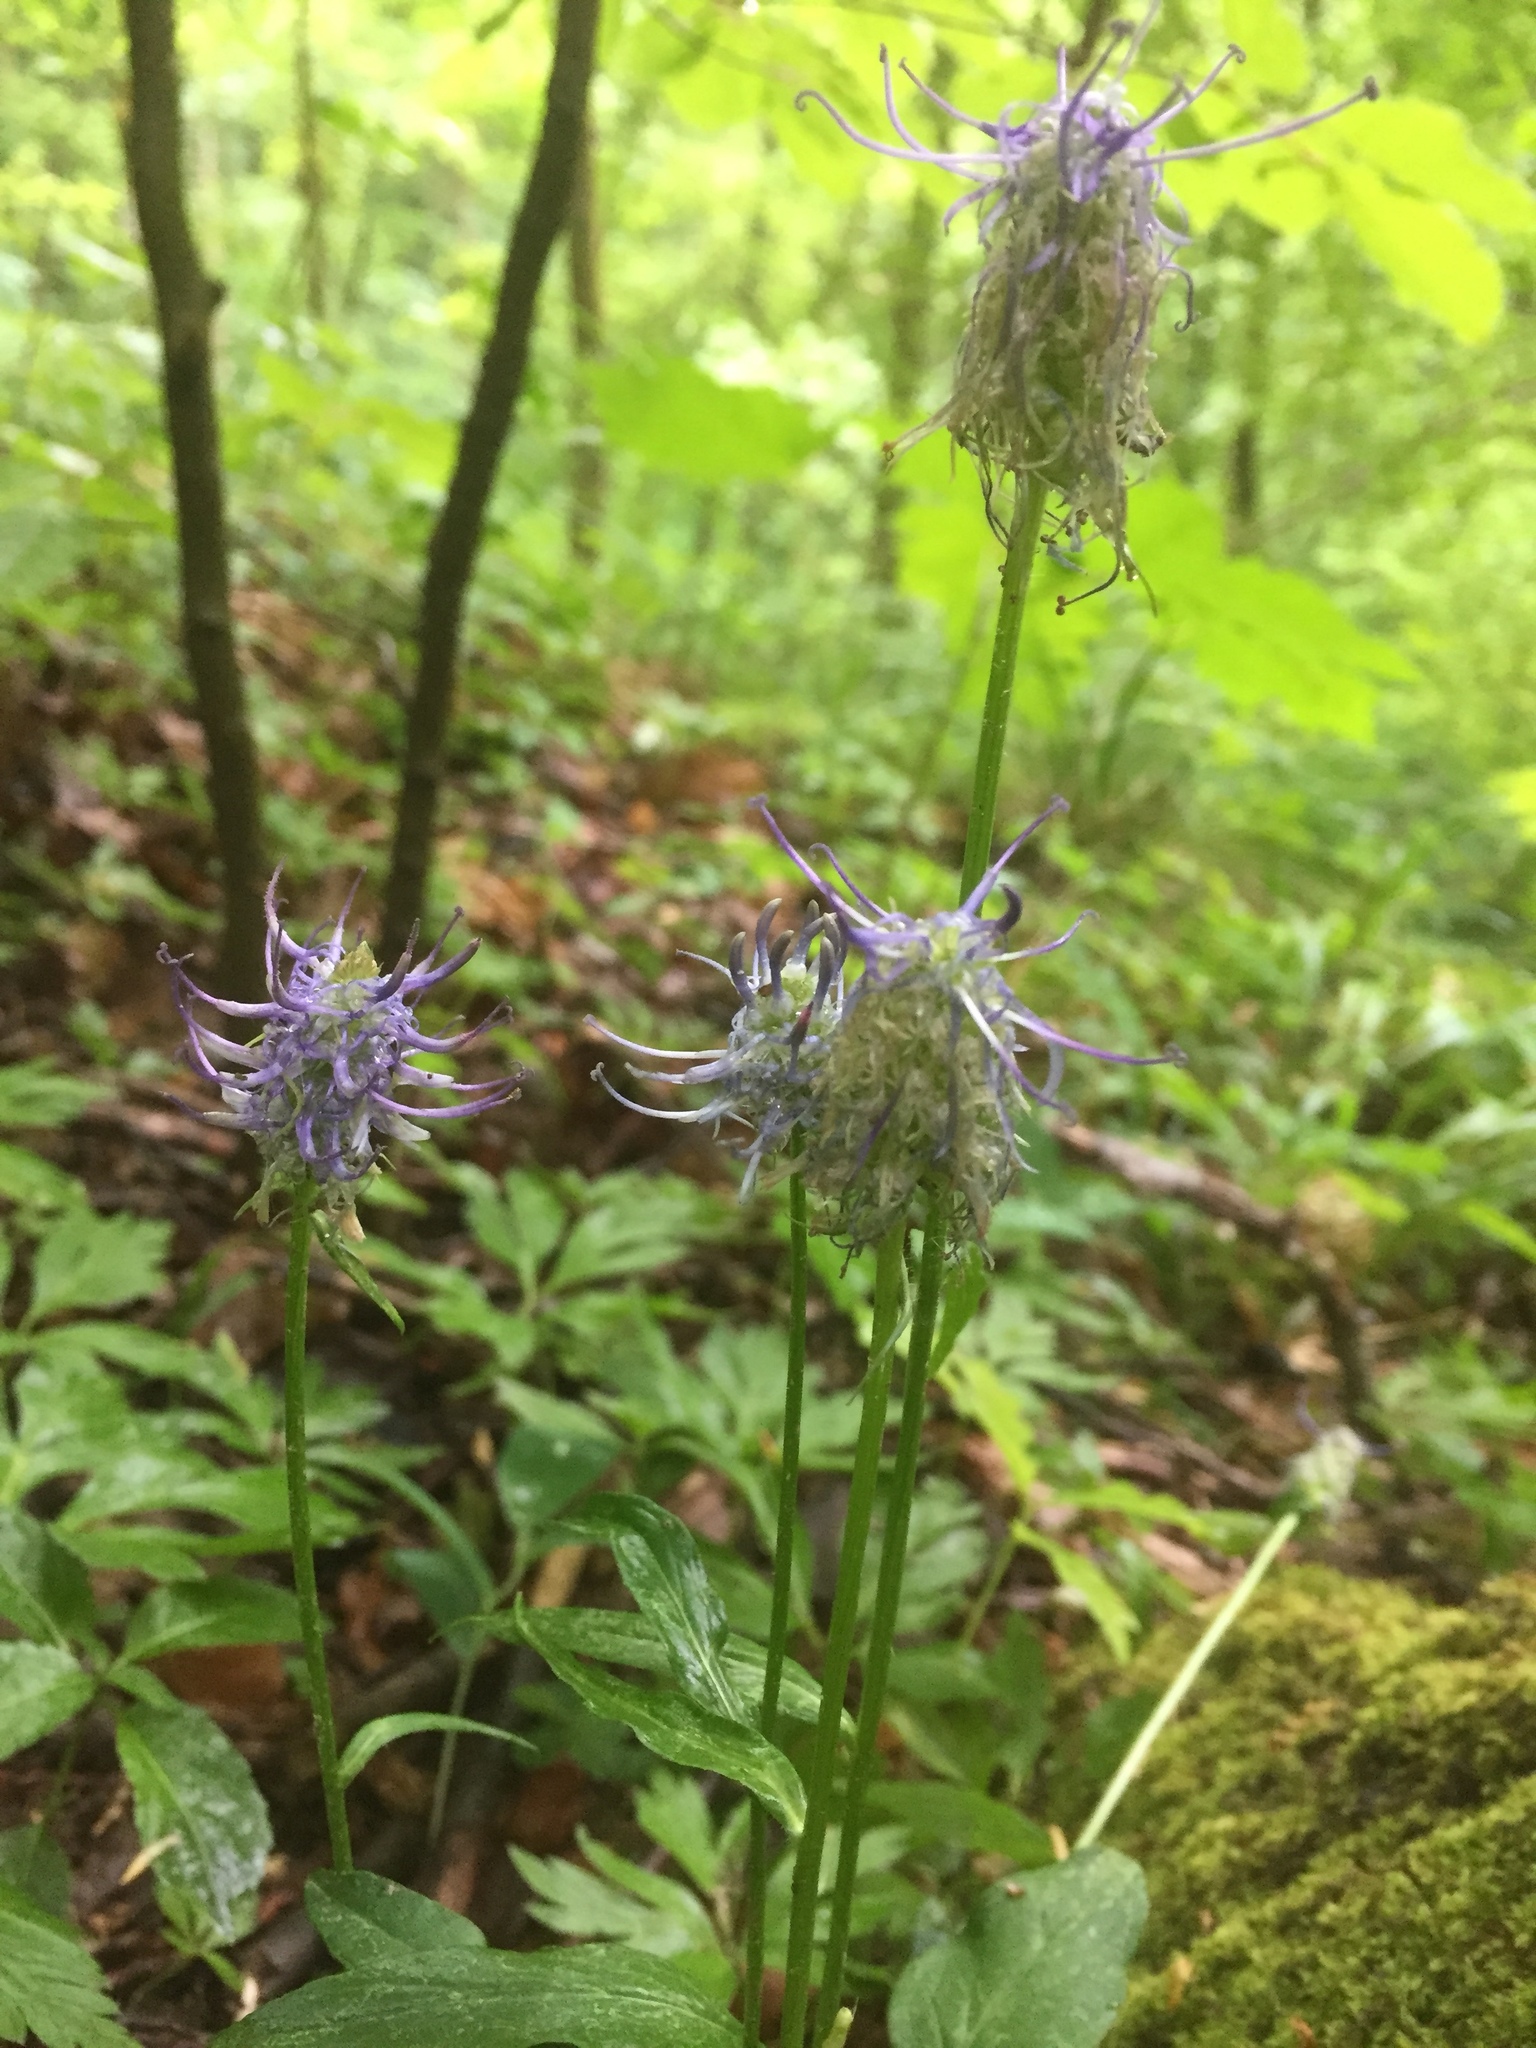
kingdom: Plantae
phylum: Tracheophyta
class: Magnoliopsida
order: Asterales
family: Campanulaceae
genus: Phyteuma
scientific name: Phyteuma nigrum
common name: Black rampion
